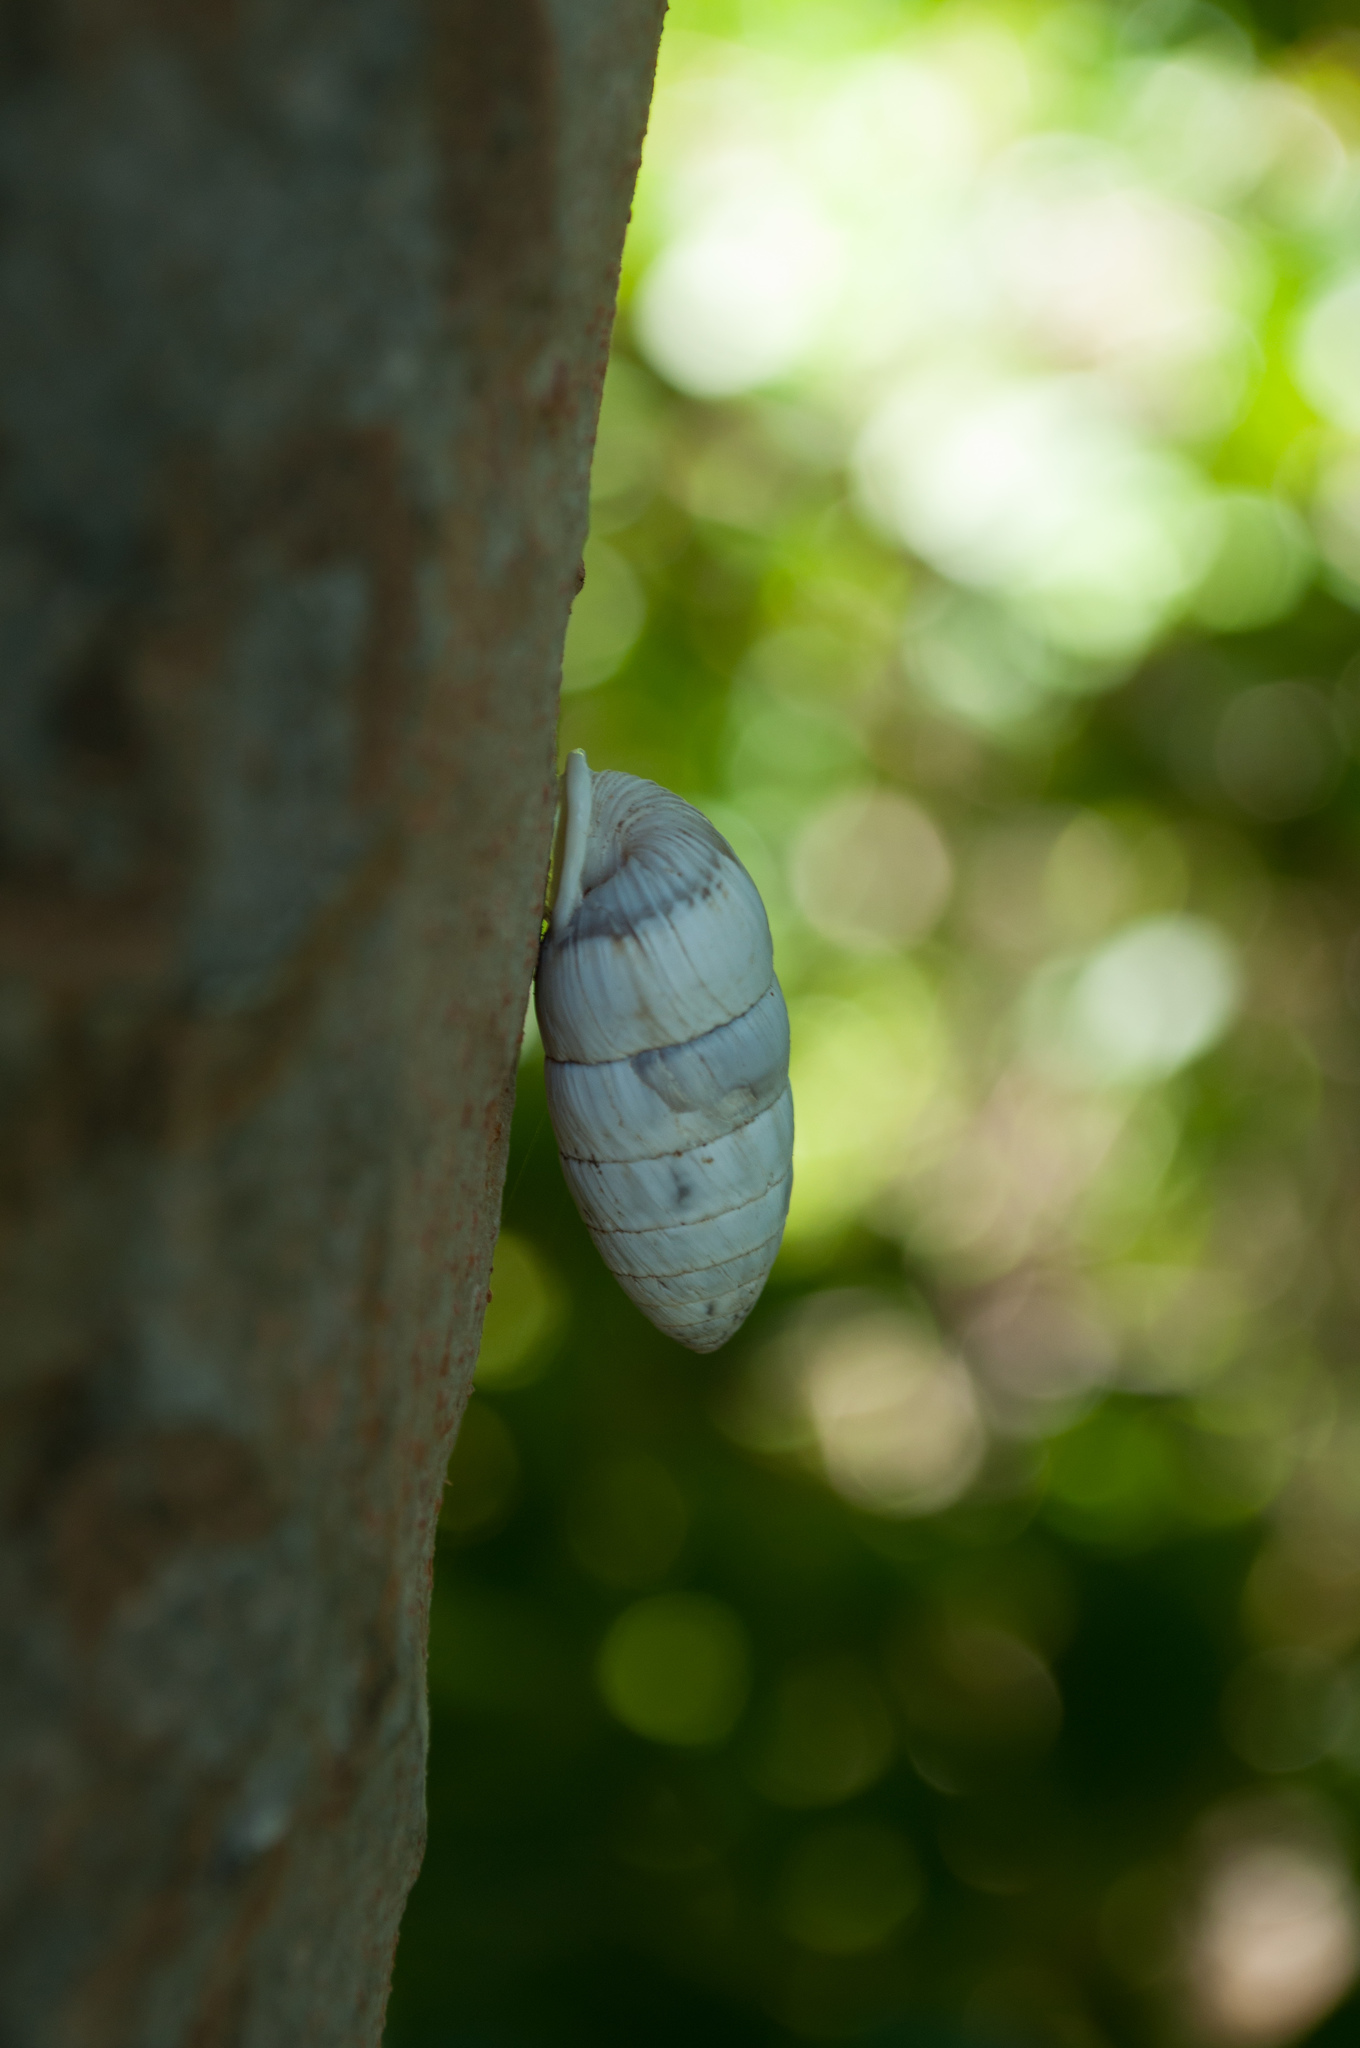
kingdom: Animalia
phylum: Mollusca
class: Gastropoda
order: Stylommatophora
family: Cerionidae
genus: Cerion
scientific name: Cerion incanum
